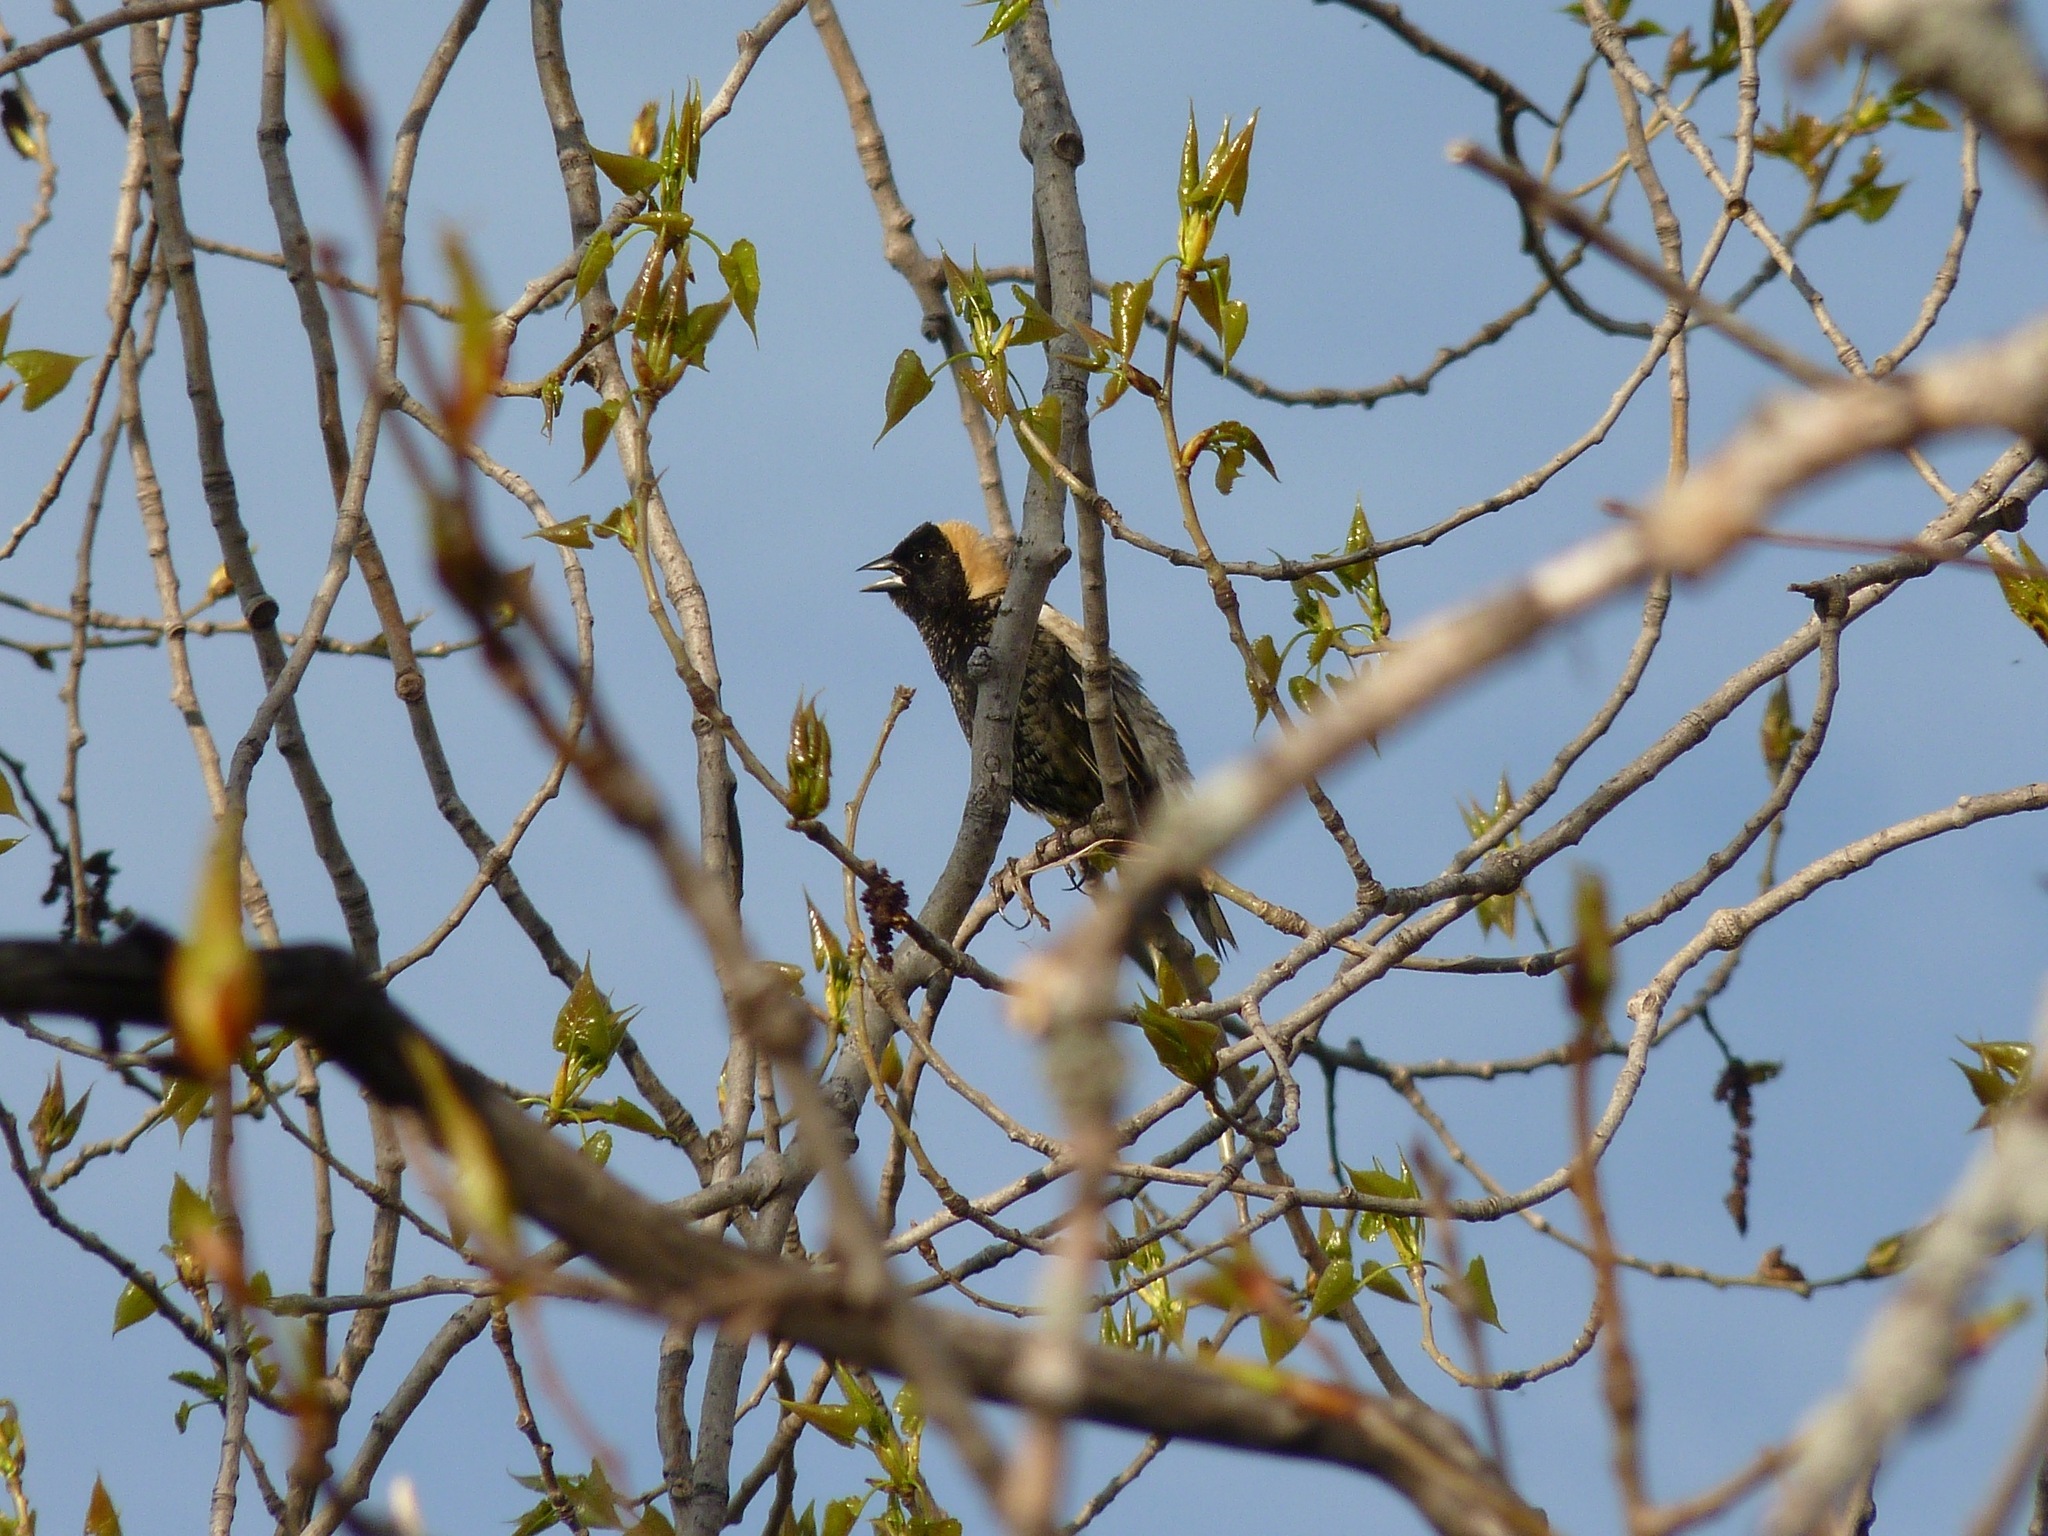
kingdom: Animalia
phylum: Chordata
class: Aves
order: Passeriformes
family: Icteridae
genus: Dolichonyx
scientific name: Dolichonyx oryzivorus
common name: Bobolink
